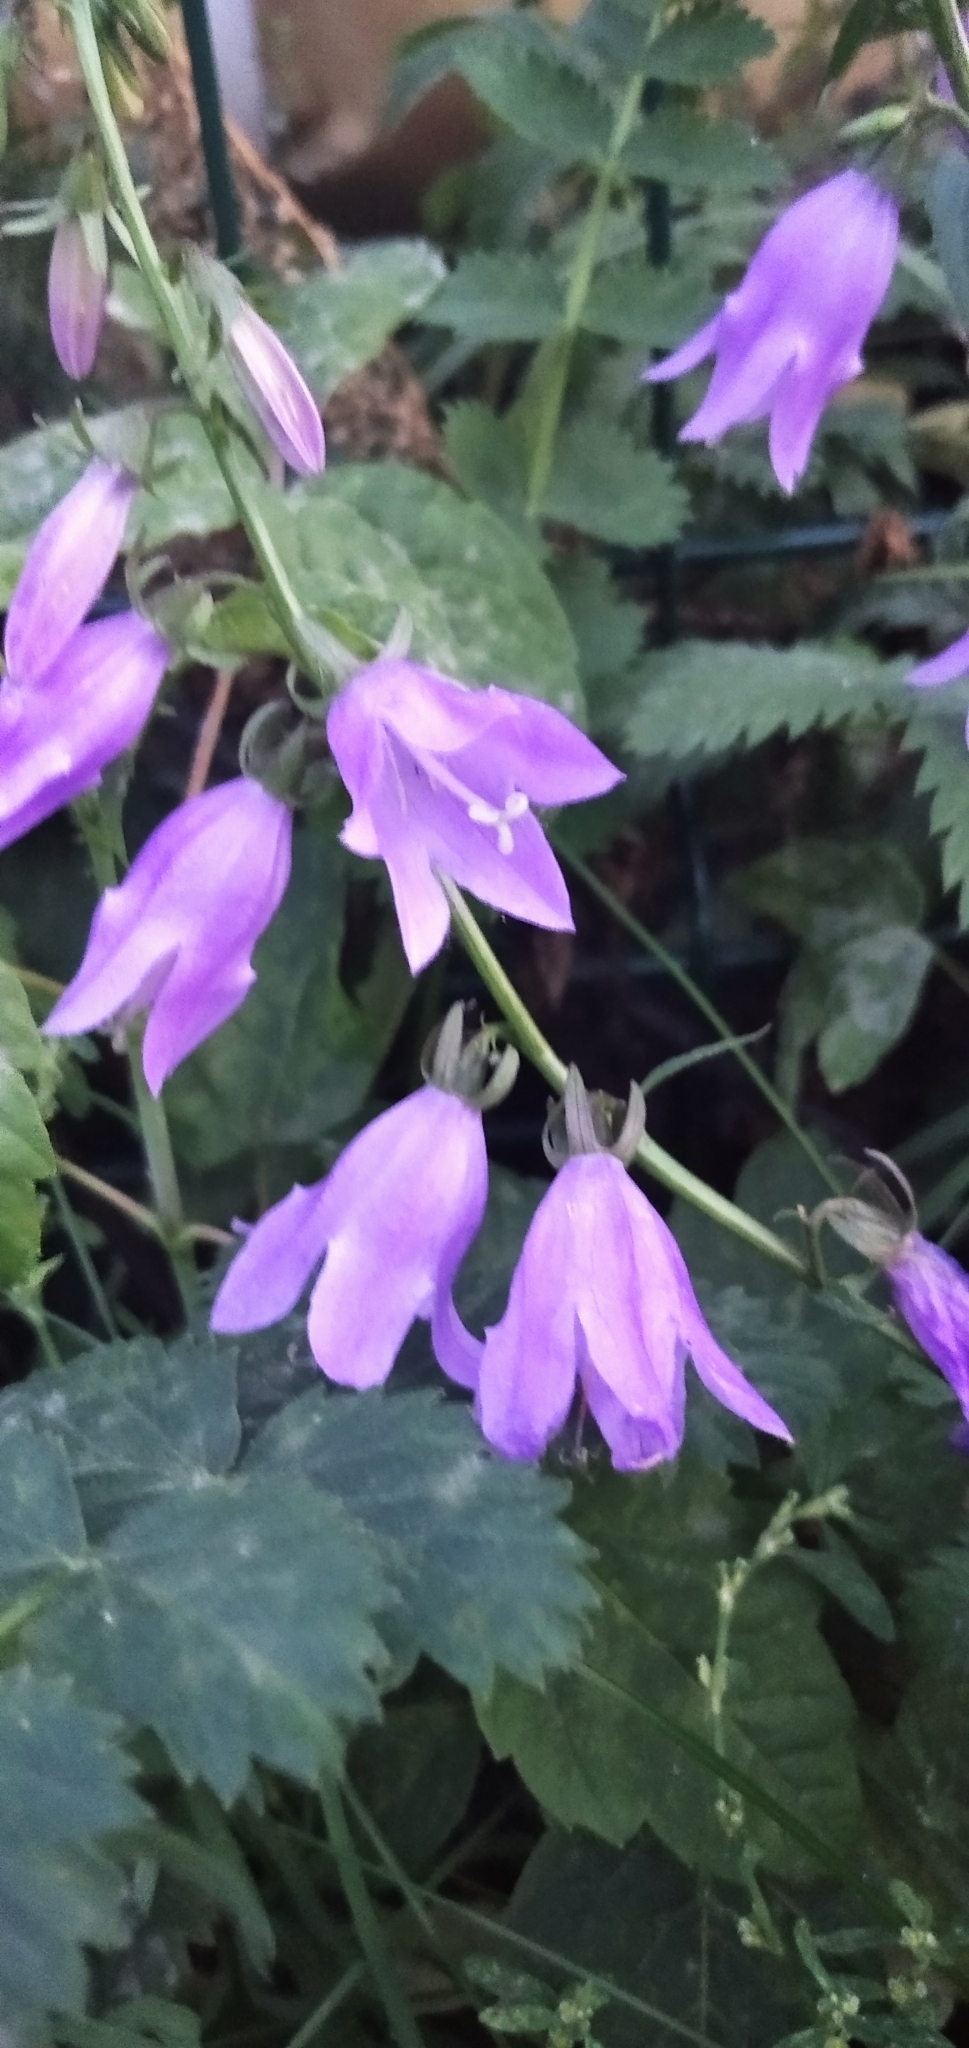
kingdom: Plantae
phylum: Tracheophyta
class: Magnoliopsida
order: Asterales
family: Campanulaceae
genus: Campanula
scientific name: Campanula rapunculoides
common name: Creeping bellflower
